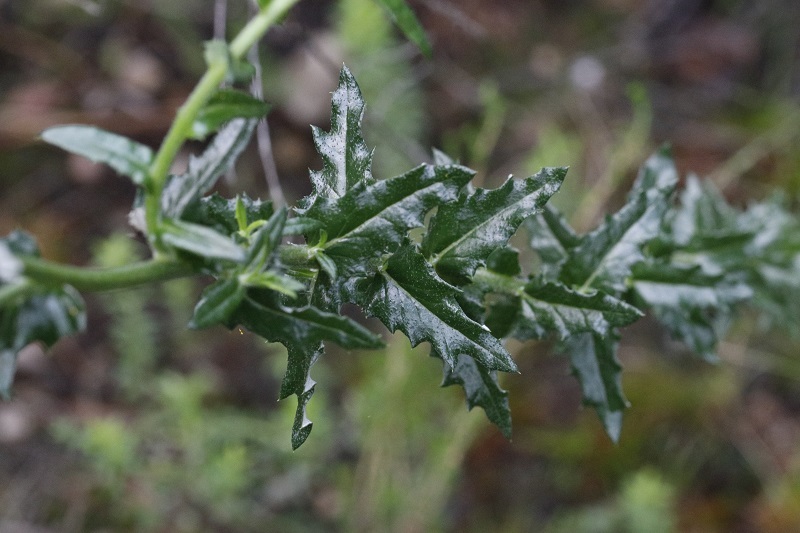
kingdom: Plantae
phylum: Tracheophyta
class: Magnoliopsida
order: Asterales
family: Asteraceae
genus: Senecio
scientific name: Senecio ilicifolius
